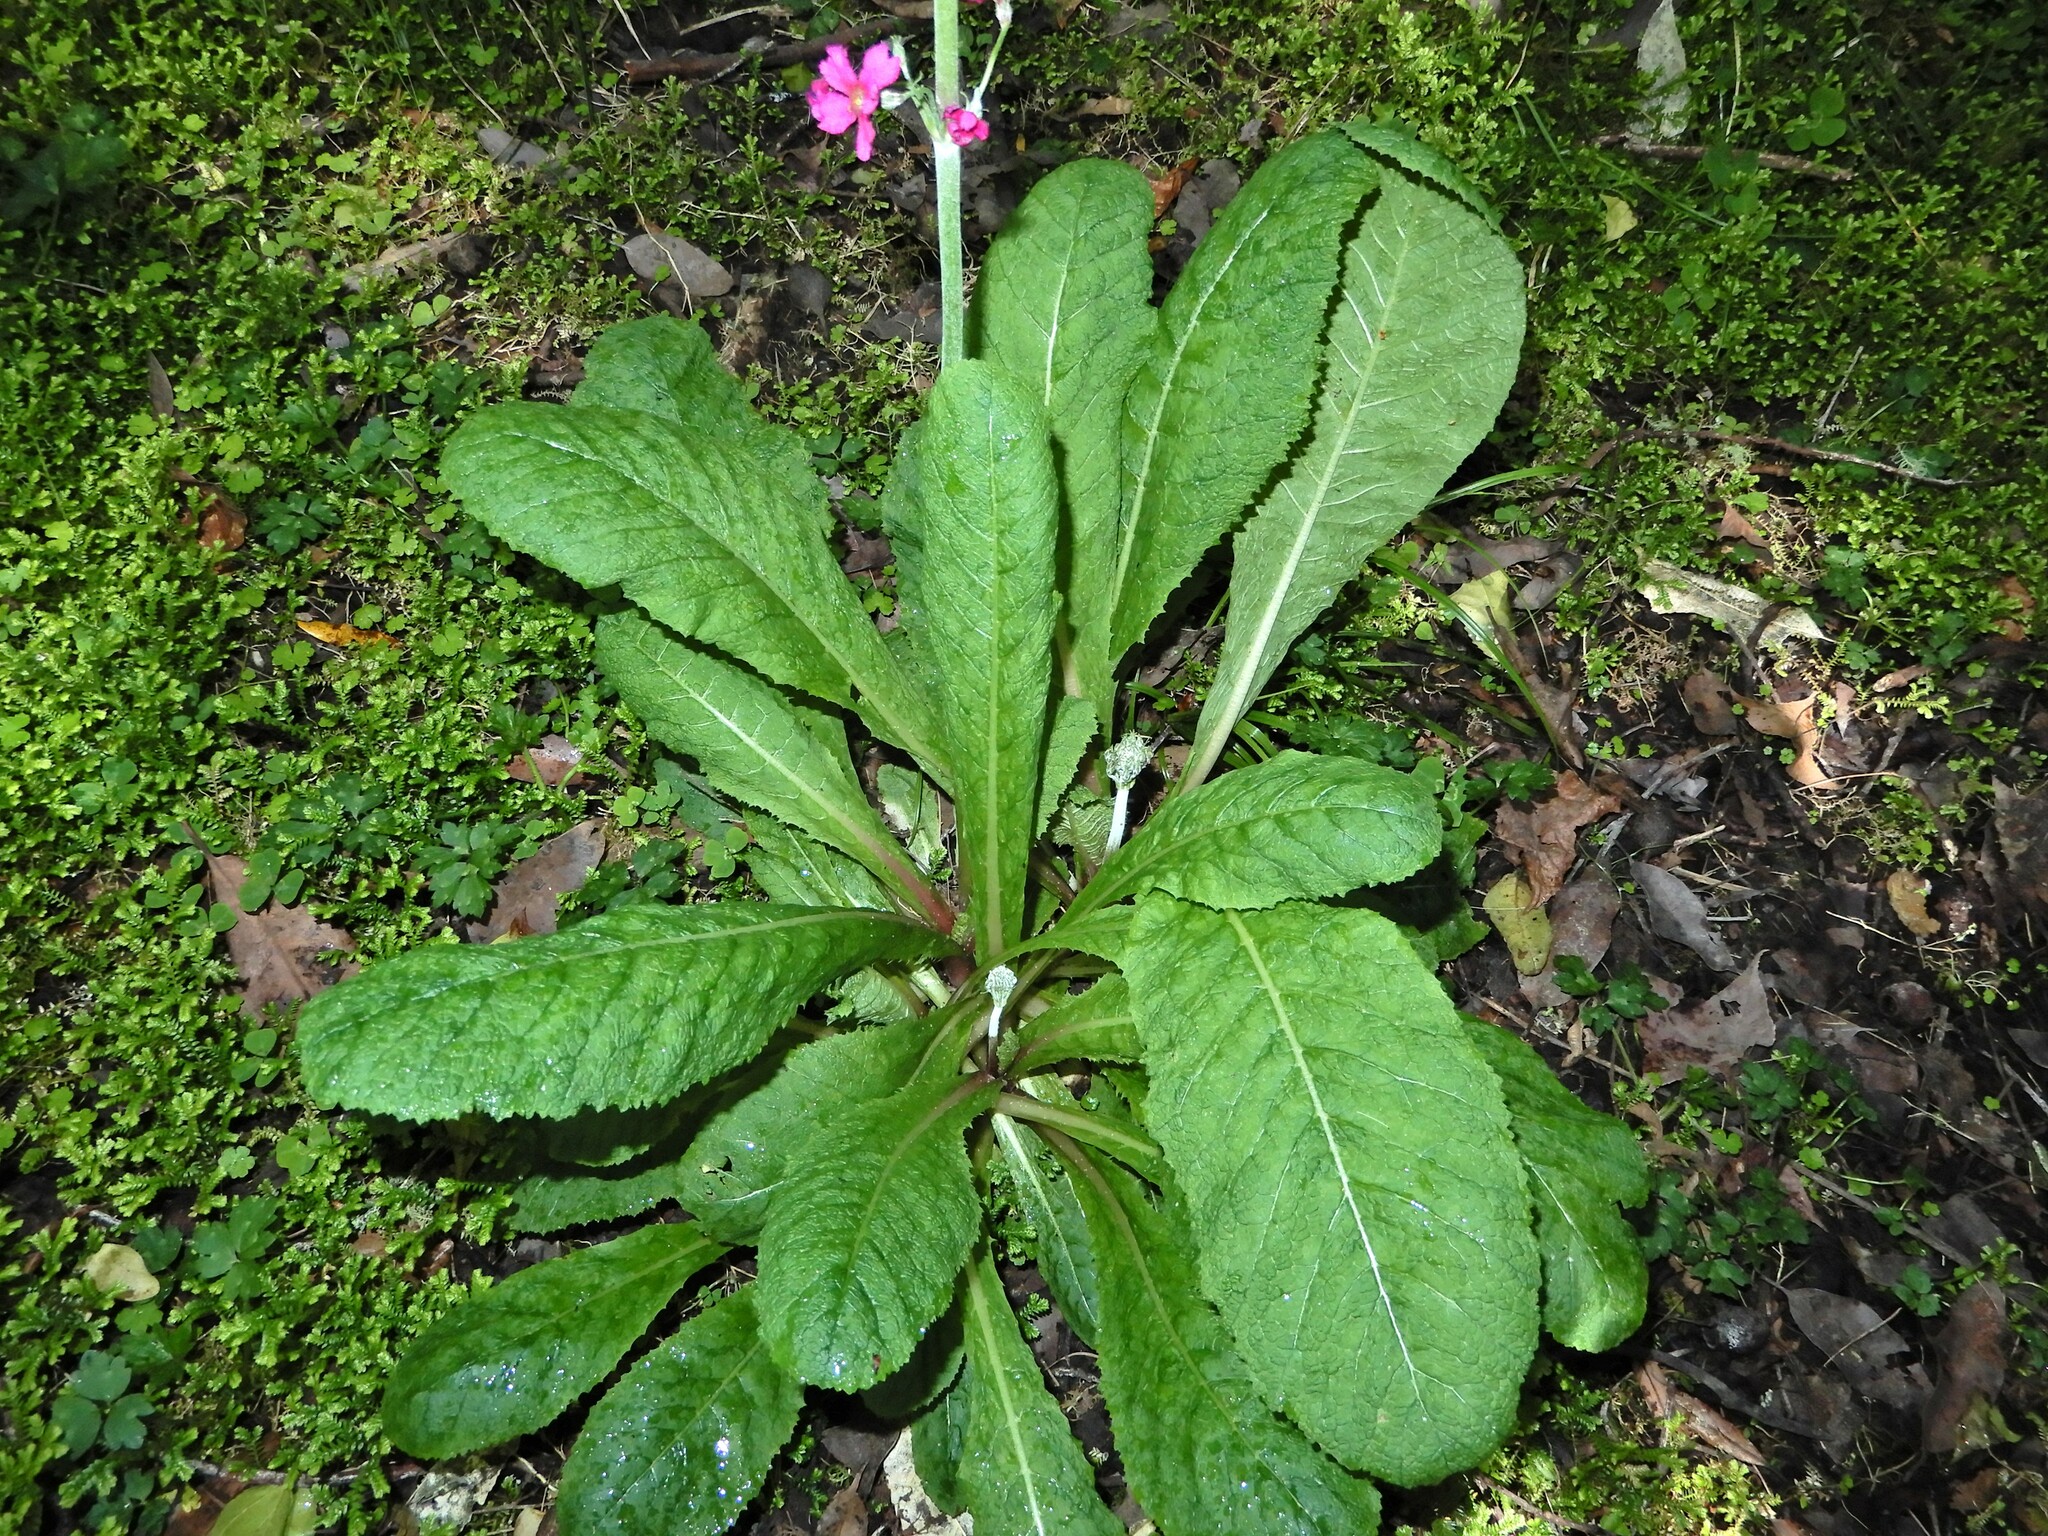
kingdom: Plantae
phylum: Tracheophyta
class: Magnoliopsida
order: Ericales
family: Primulaceae
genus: Primula
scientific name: Primula pulverulenta
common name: Mealy cowslip
